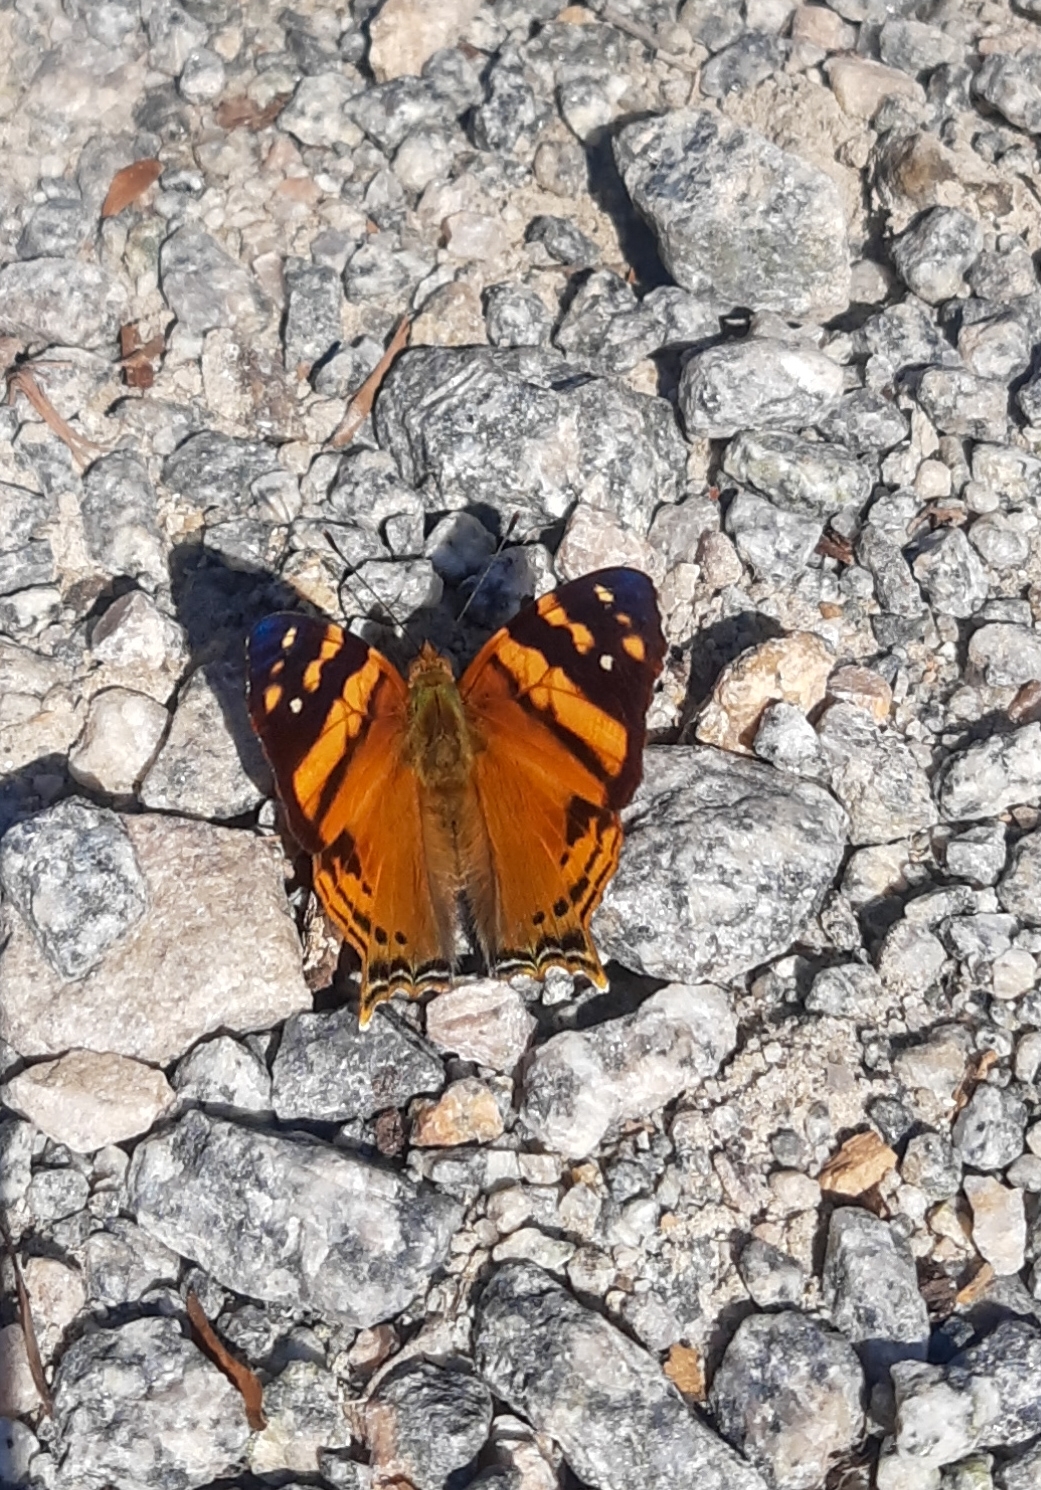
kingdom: Animalia
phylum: Arthropoda
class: Insecta
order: Lepidoptera
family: Nymphalidae
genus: Hypanartia
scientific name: Hypanartia lethe
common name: Orange mapwing
